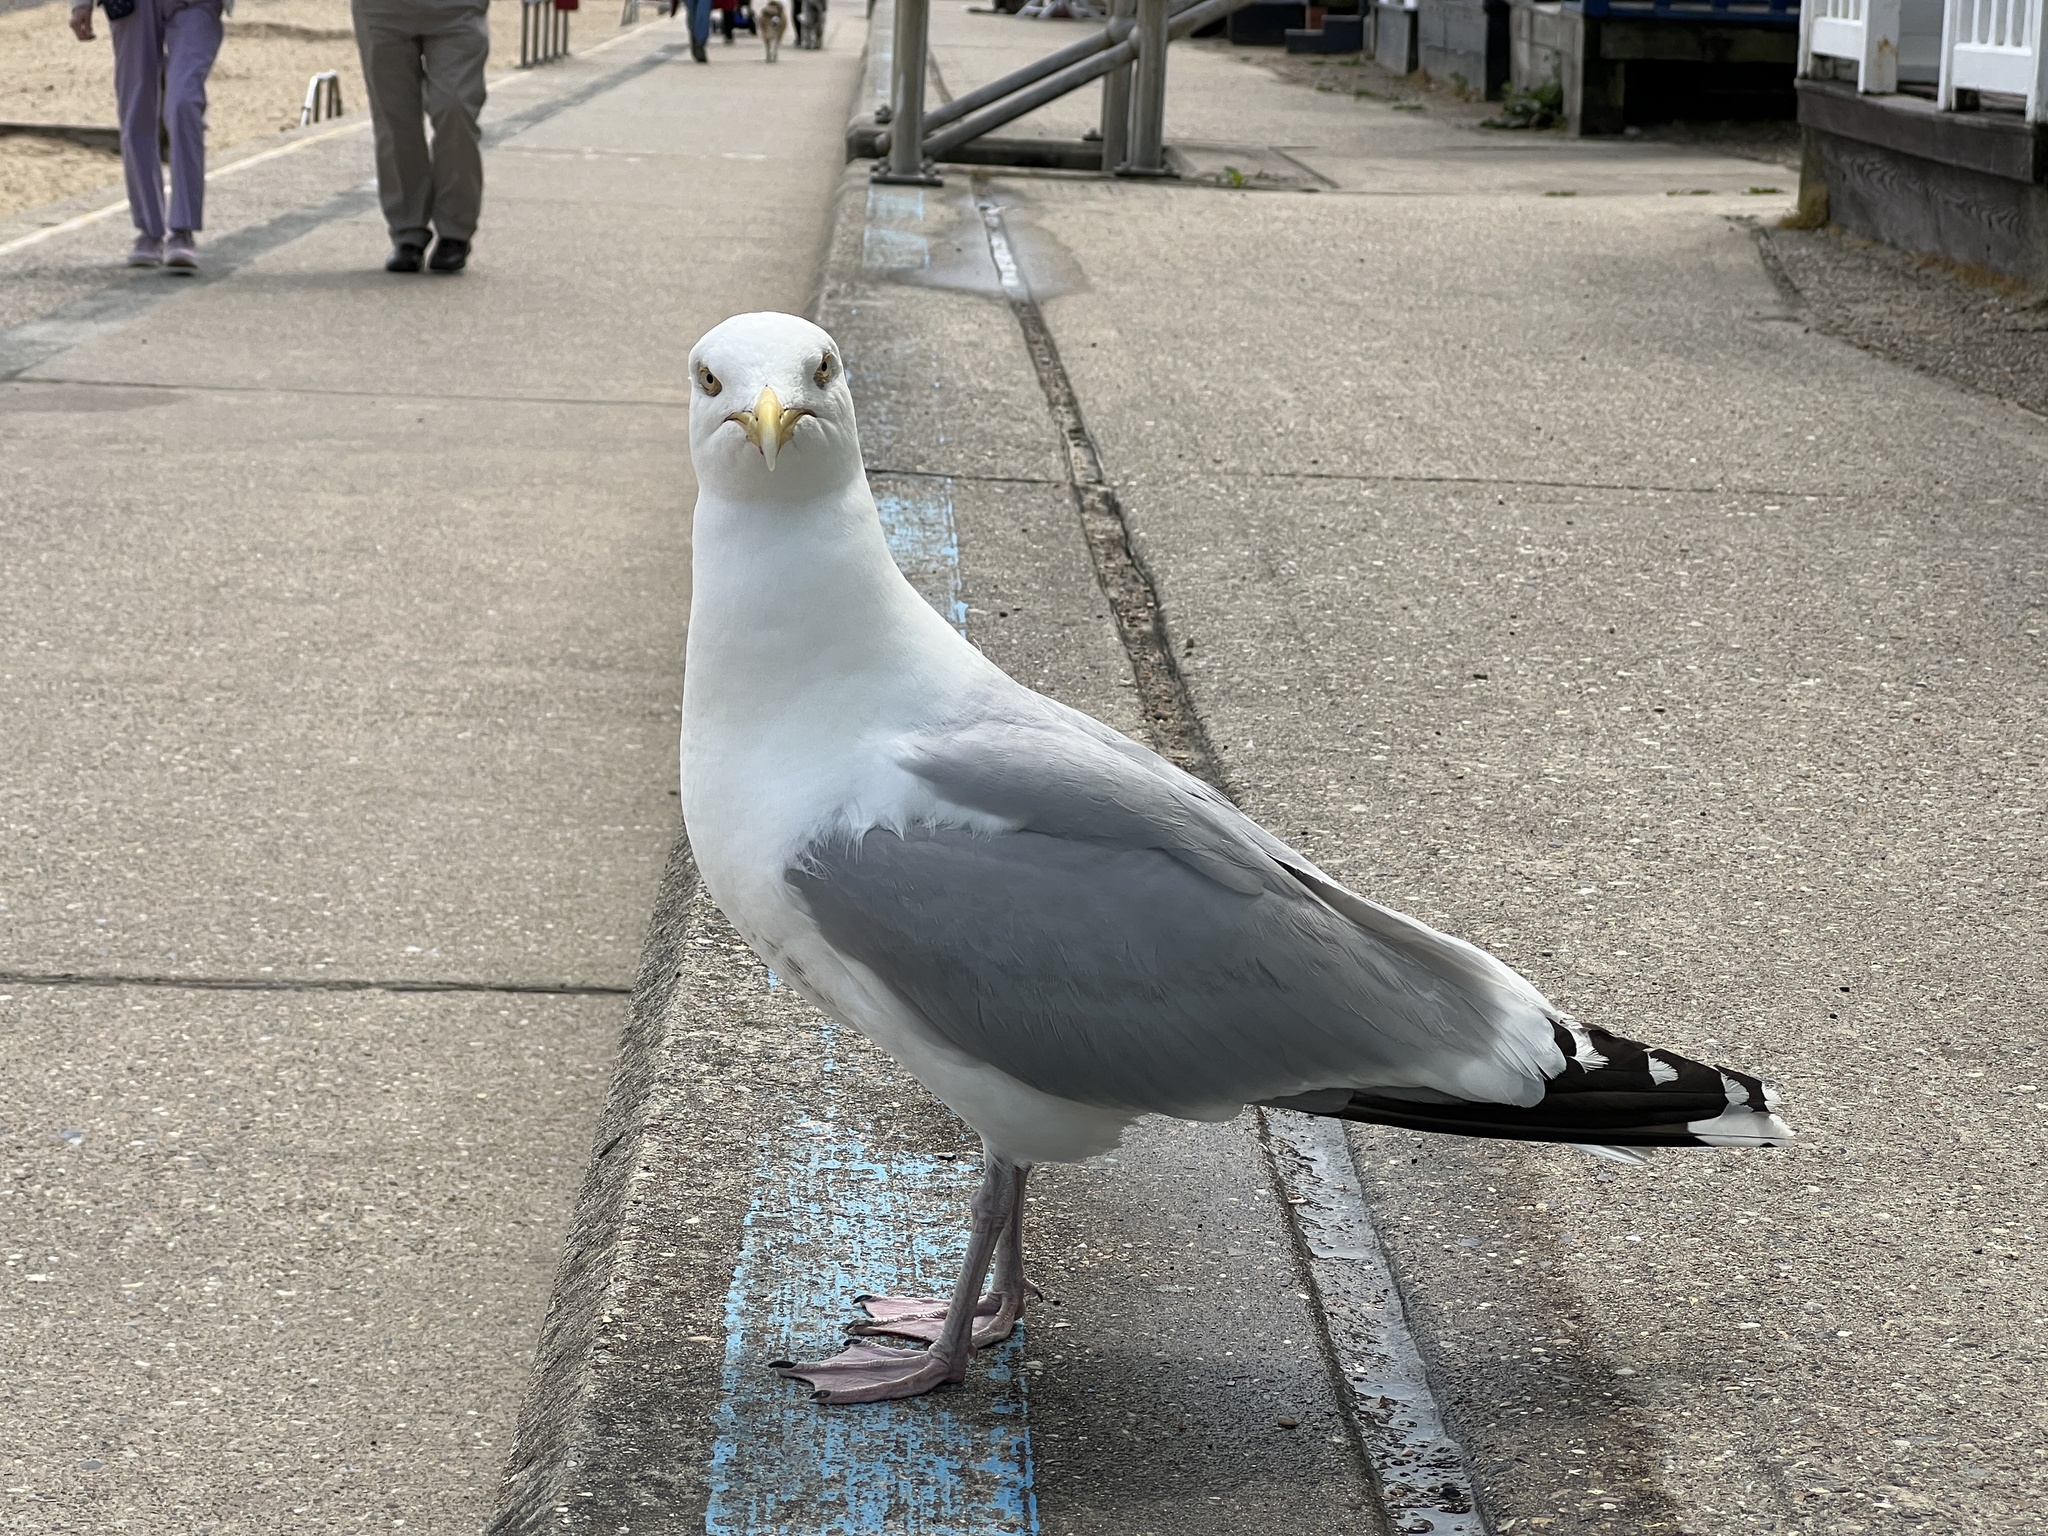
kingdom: Animalia
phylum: Chordata
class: Aves
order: Charadriiformes
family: Laridae
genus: Larus
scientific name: Larus argentatus
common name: Herring gull
